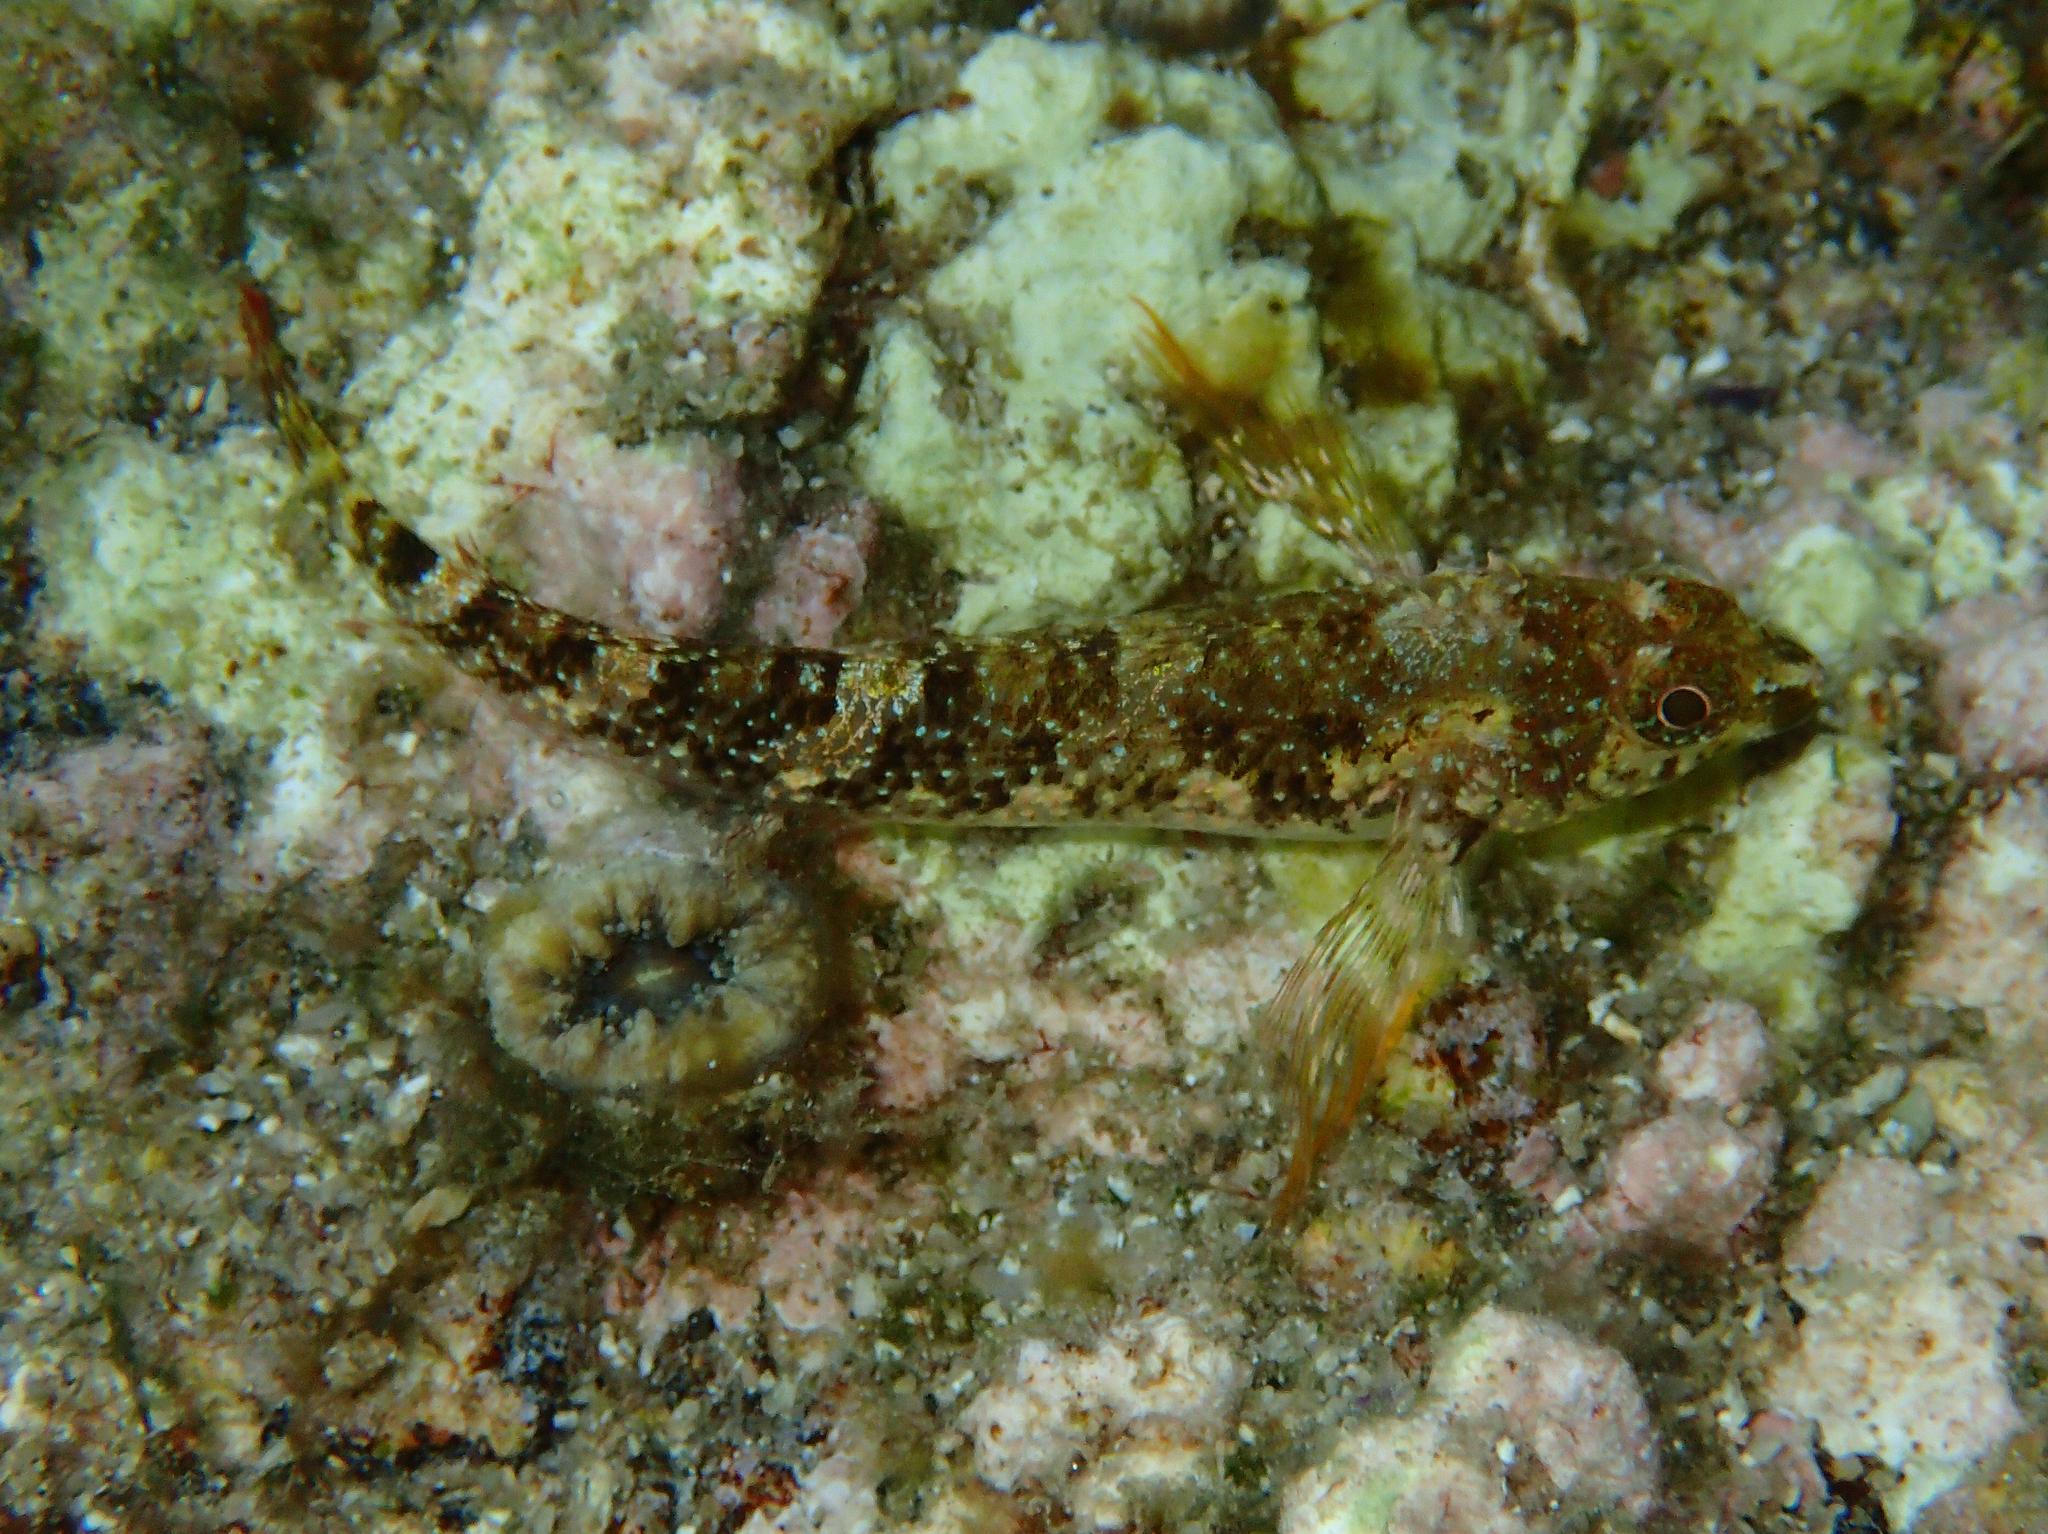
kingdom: Animalia
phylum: Chordata
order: Perciformes
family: Tripterygiidae
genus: Tripterygion
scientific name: Tripterygion tripteronotum
